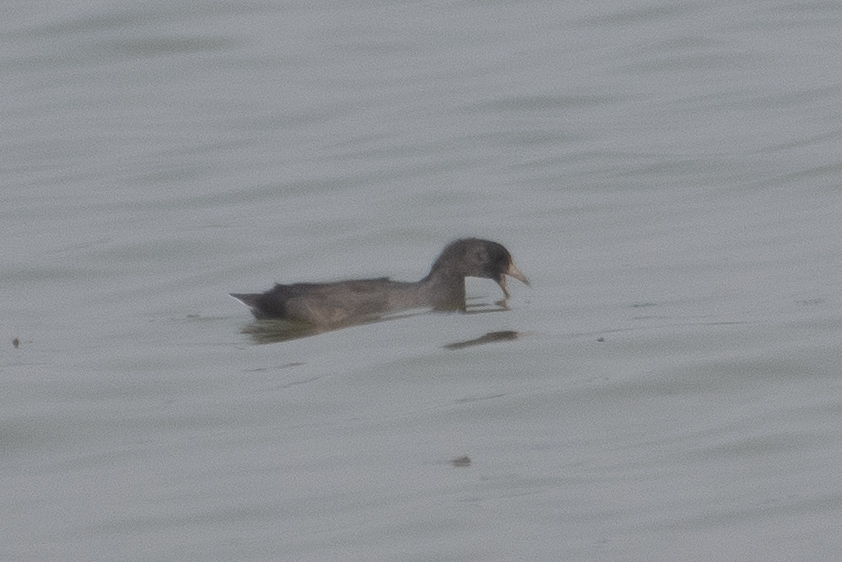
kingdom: Animalia
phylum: Chordata
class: Aves
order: Gruiformes
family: Rallidae
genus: Fulica
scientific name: Fulica americana
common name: American coot
